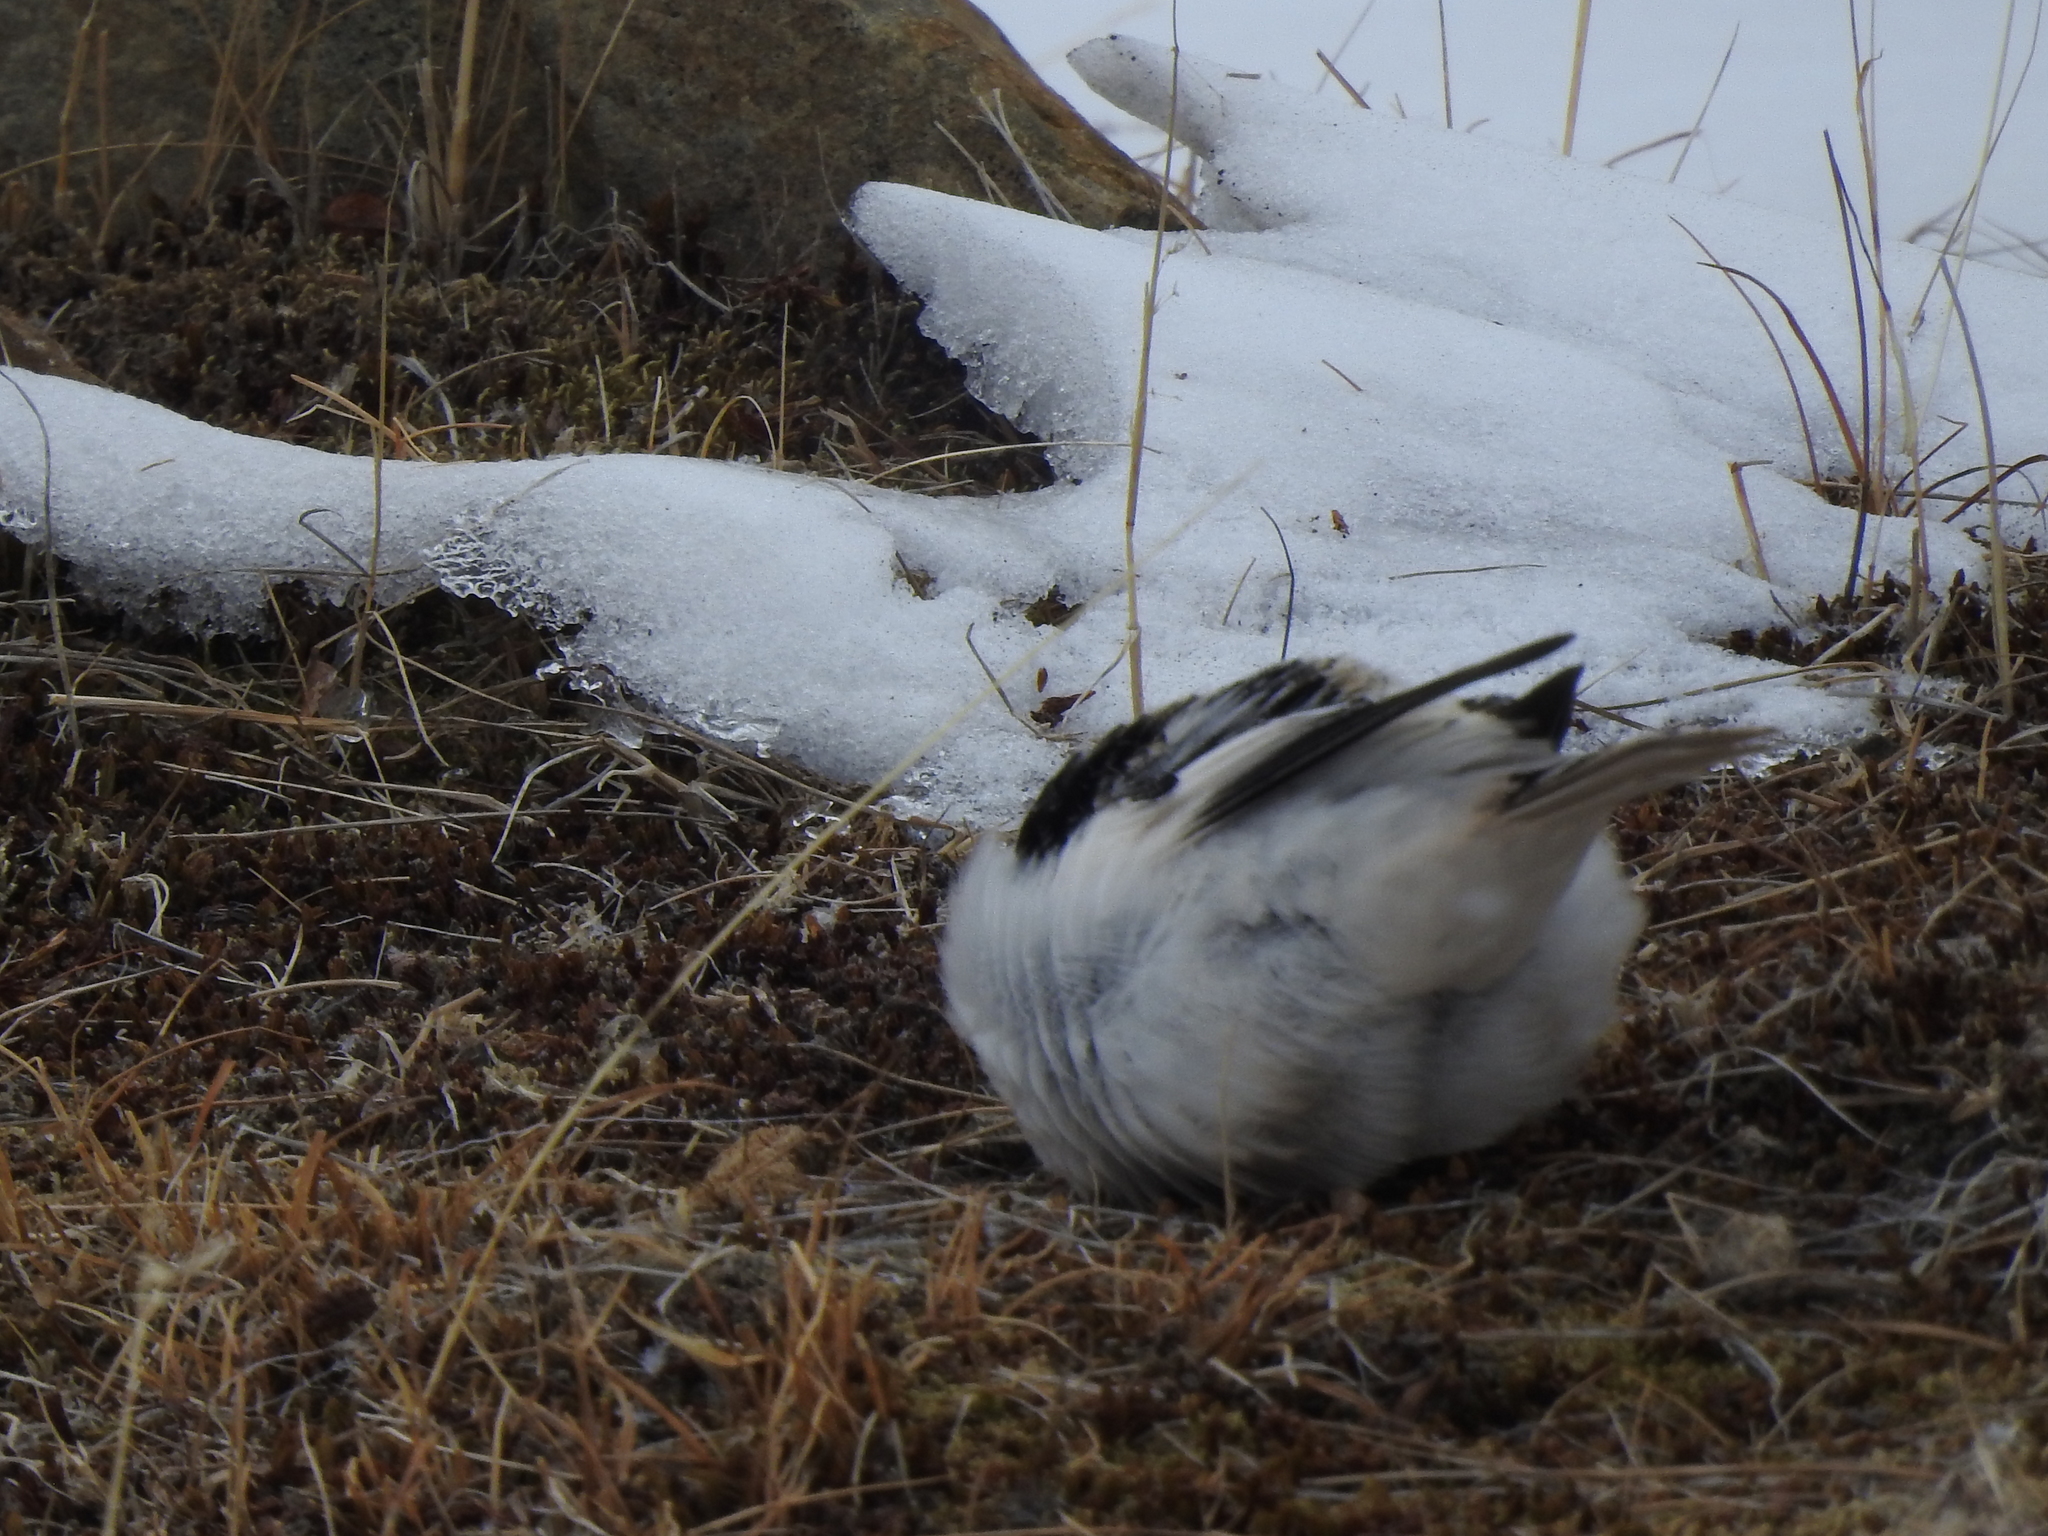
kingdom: Animalia
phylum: Chordata
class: Aves
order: Passeriformes
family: Calcariidae
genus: Plectrophenax
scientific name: Plectrophenax nivalis
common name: Snow bunting
